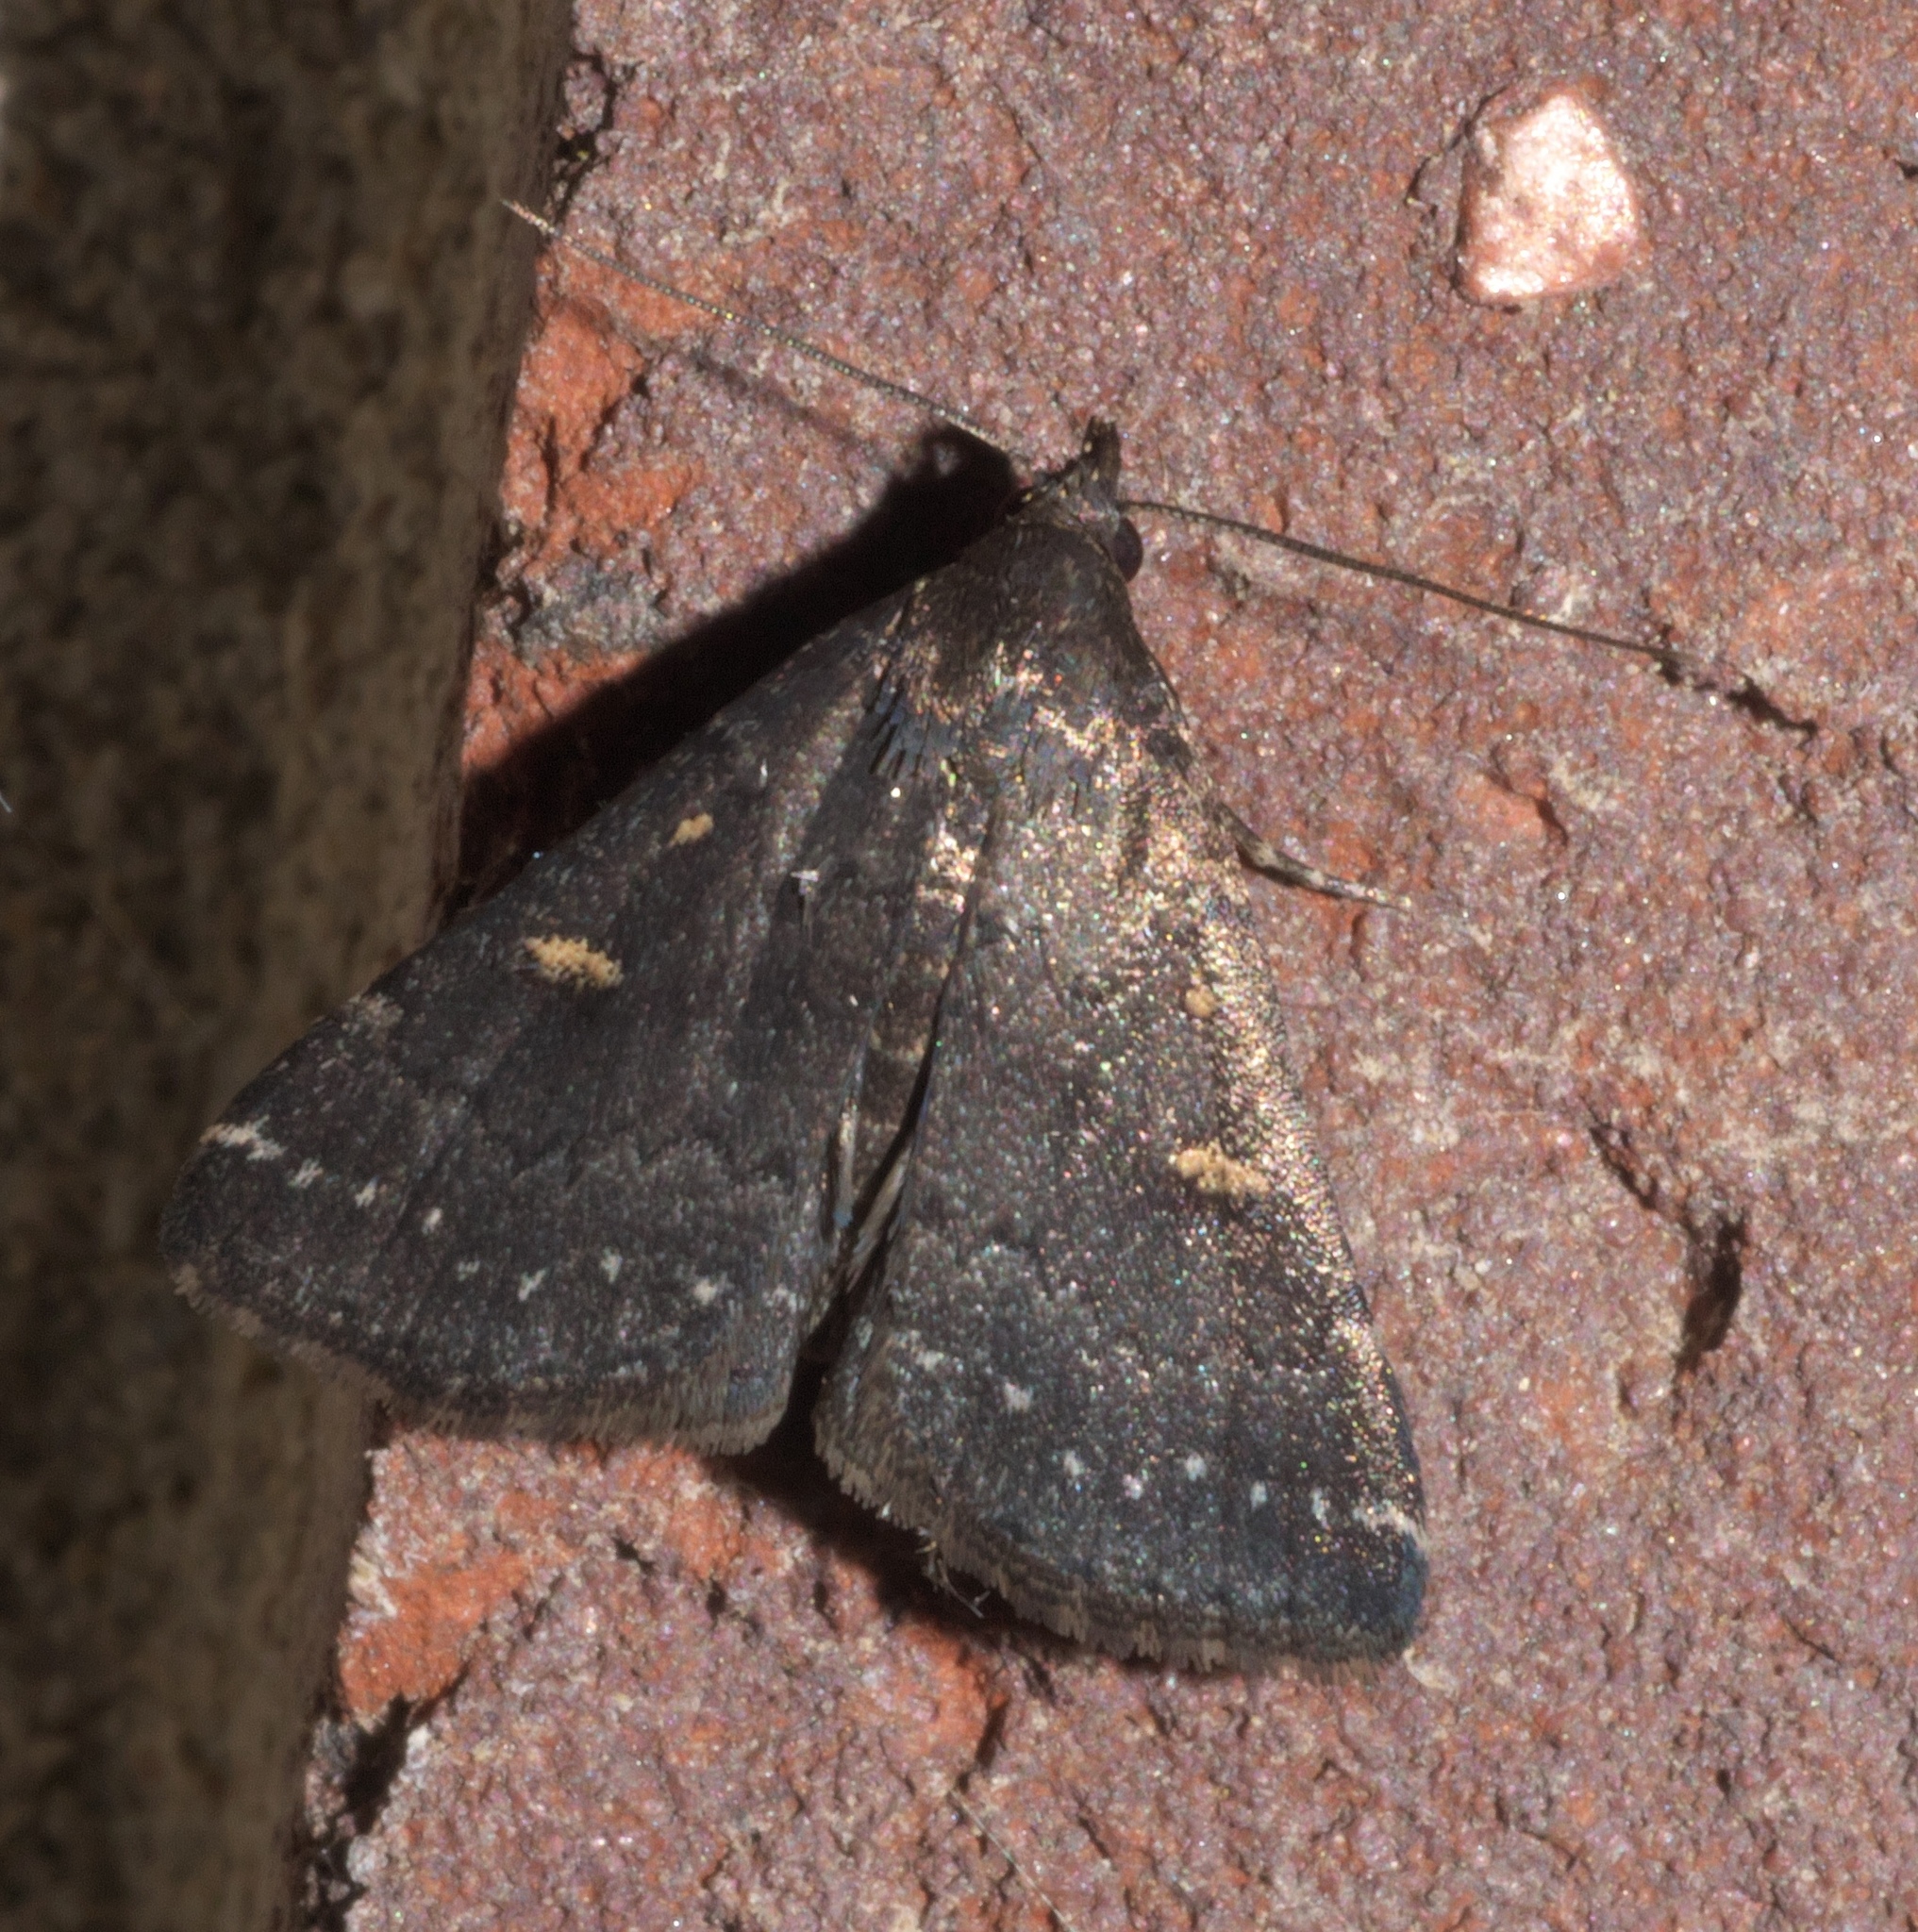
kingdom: Animalia
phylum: Arthropoda
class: Insecta
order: Lepidoptera
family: Erebidae
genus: Tetanolita
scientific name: Tetanolita mynesalis
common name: Smoky tetanolita moth
